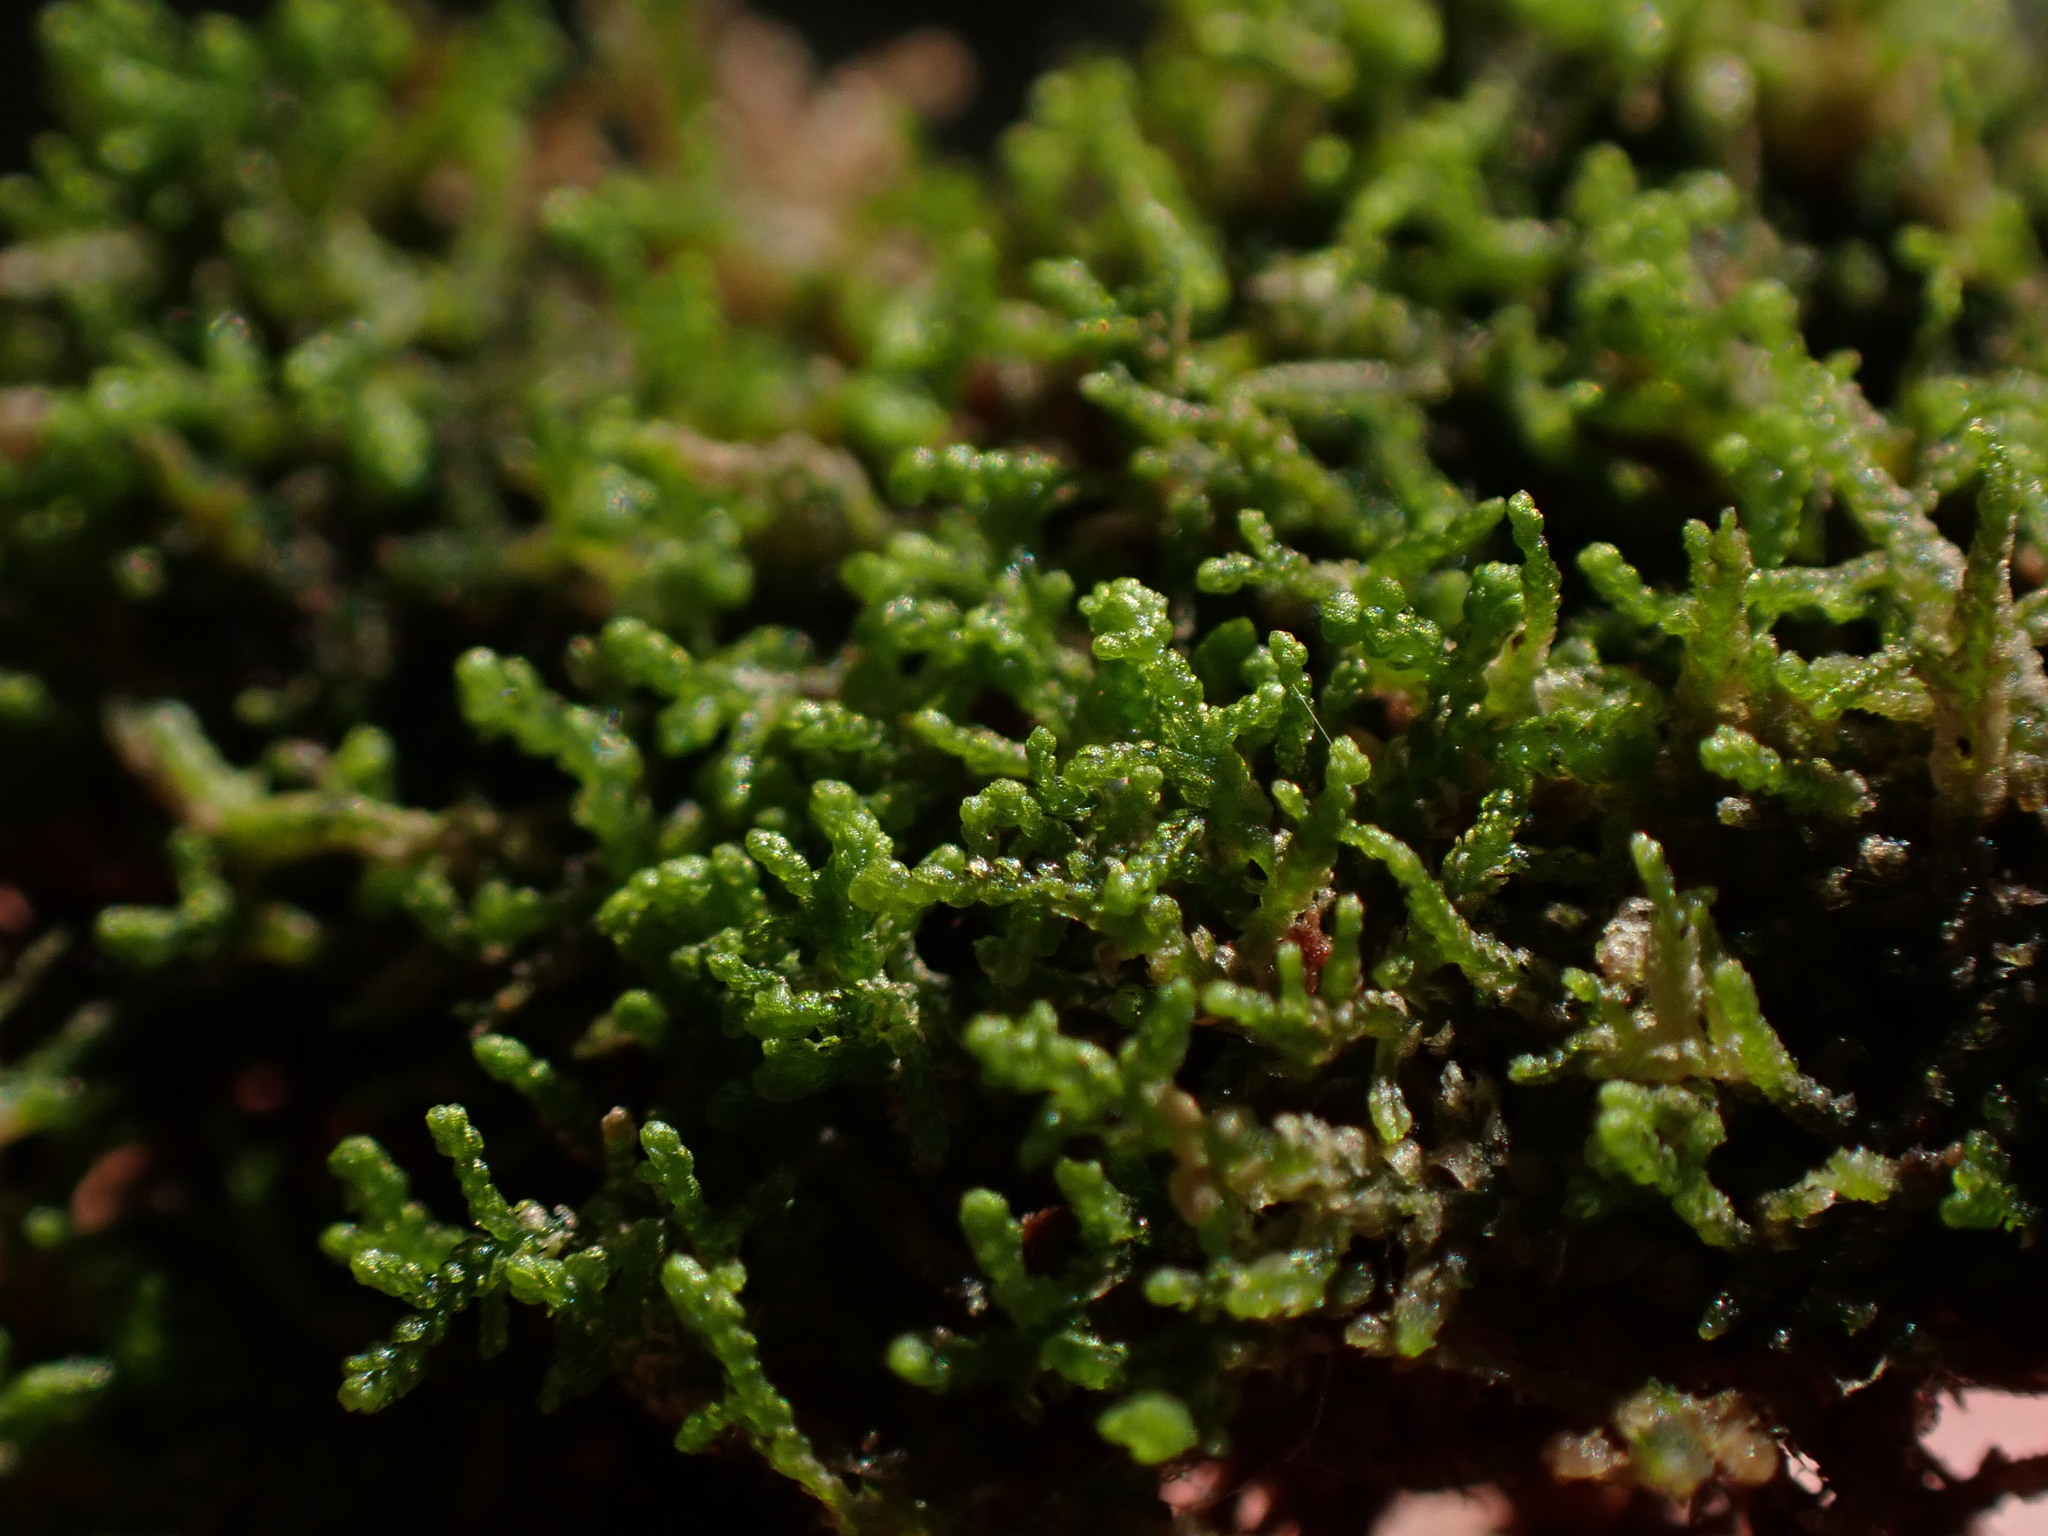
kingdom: Plantae
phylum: Marchantiophyta
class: Jungermanniopsida
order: Jungermanniales
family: Lepidoziaceae
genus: Lepidozia
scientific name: Lepidozia reptans
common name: Creeping fingerwort
